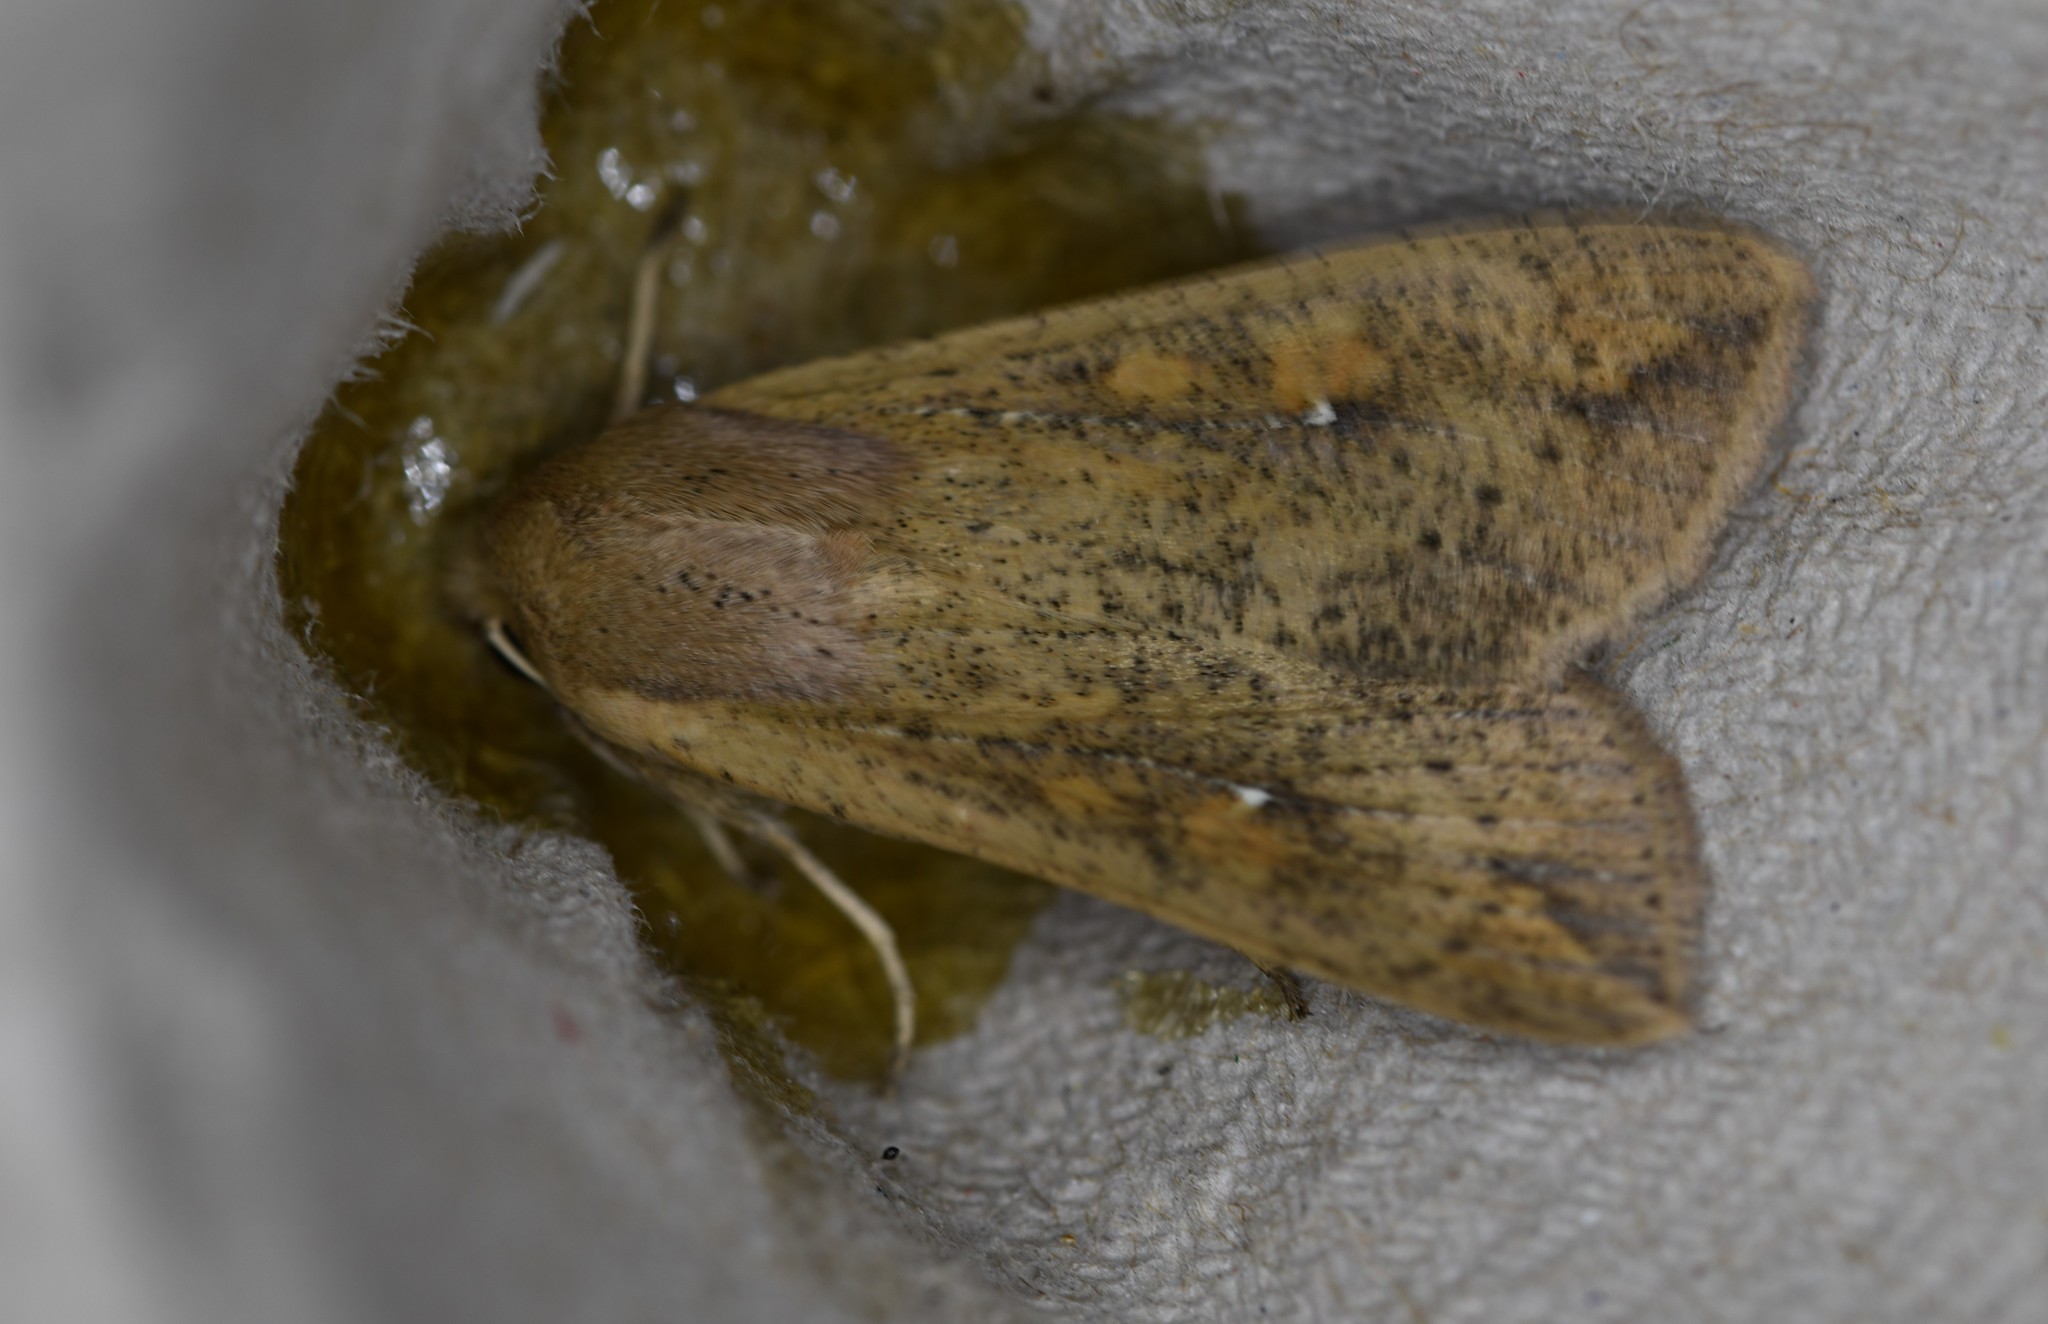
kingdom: Animalia
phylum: Arthropoda
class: Insecta
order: Lepidoptera
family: Noctuidae
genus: Mythimna
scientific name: Mythimna unipuncta
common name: White-speck
